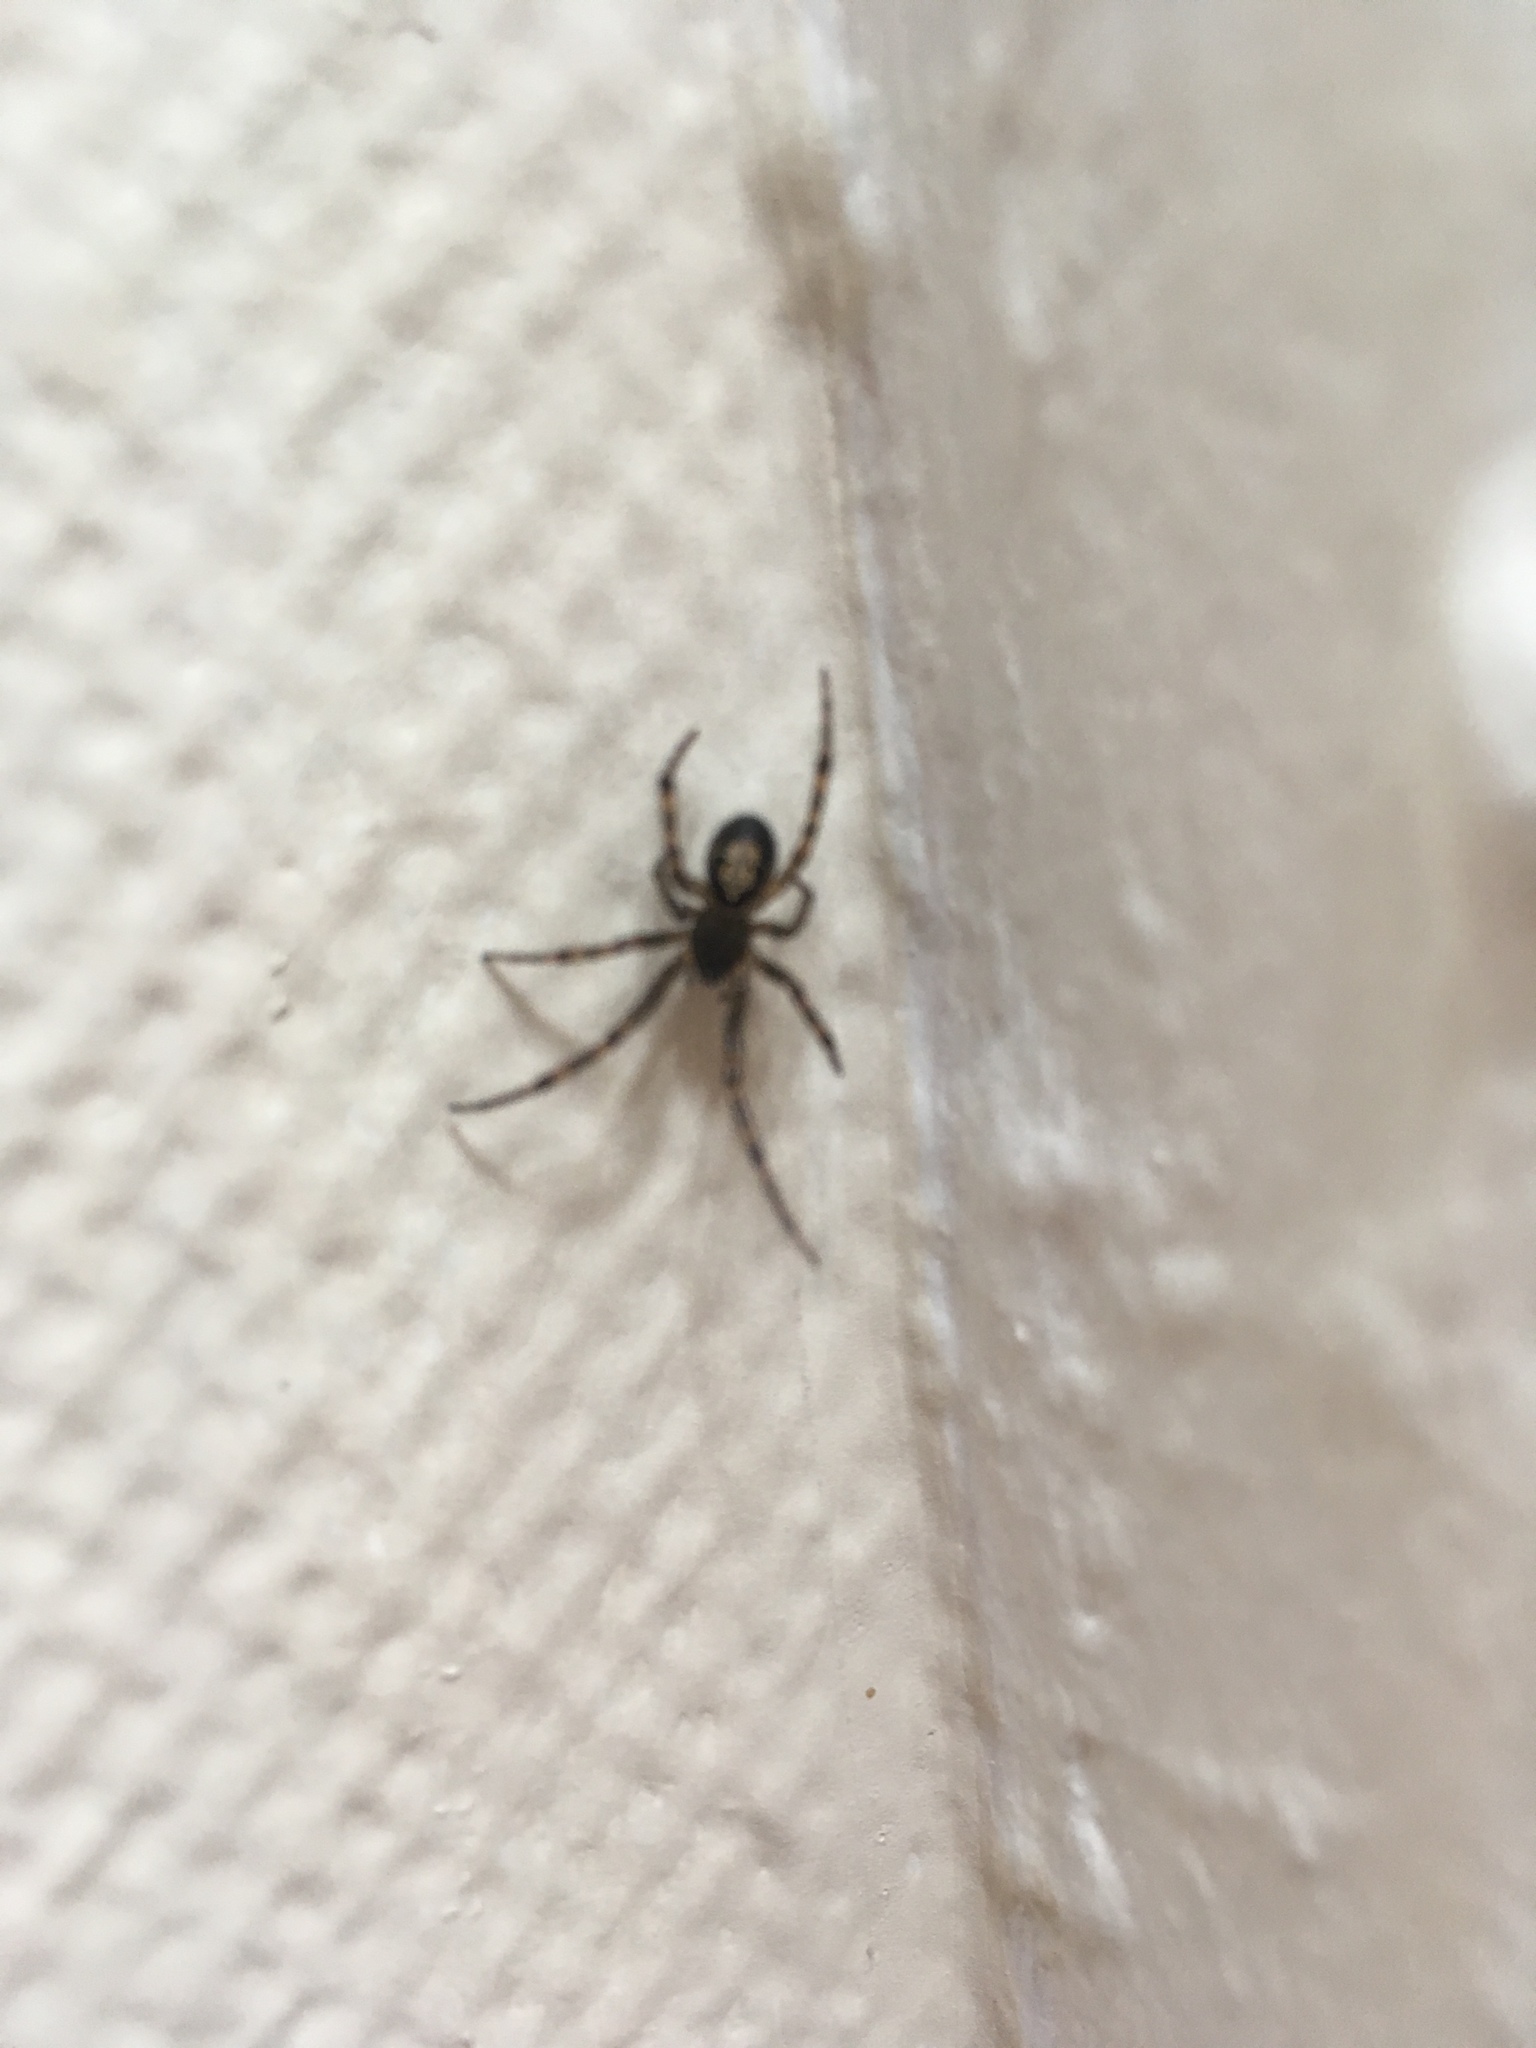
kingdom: Animalia
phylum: Arthropoda
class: Arachnida
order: Araneae
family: Theridiidae
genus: Steatoda
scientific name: Steatoda nobilis
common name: Cobweb weaver
